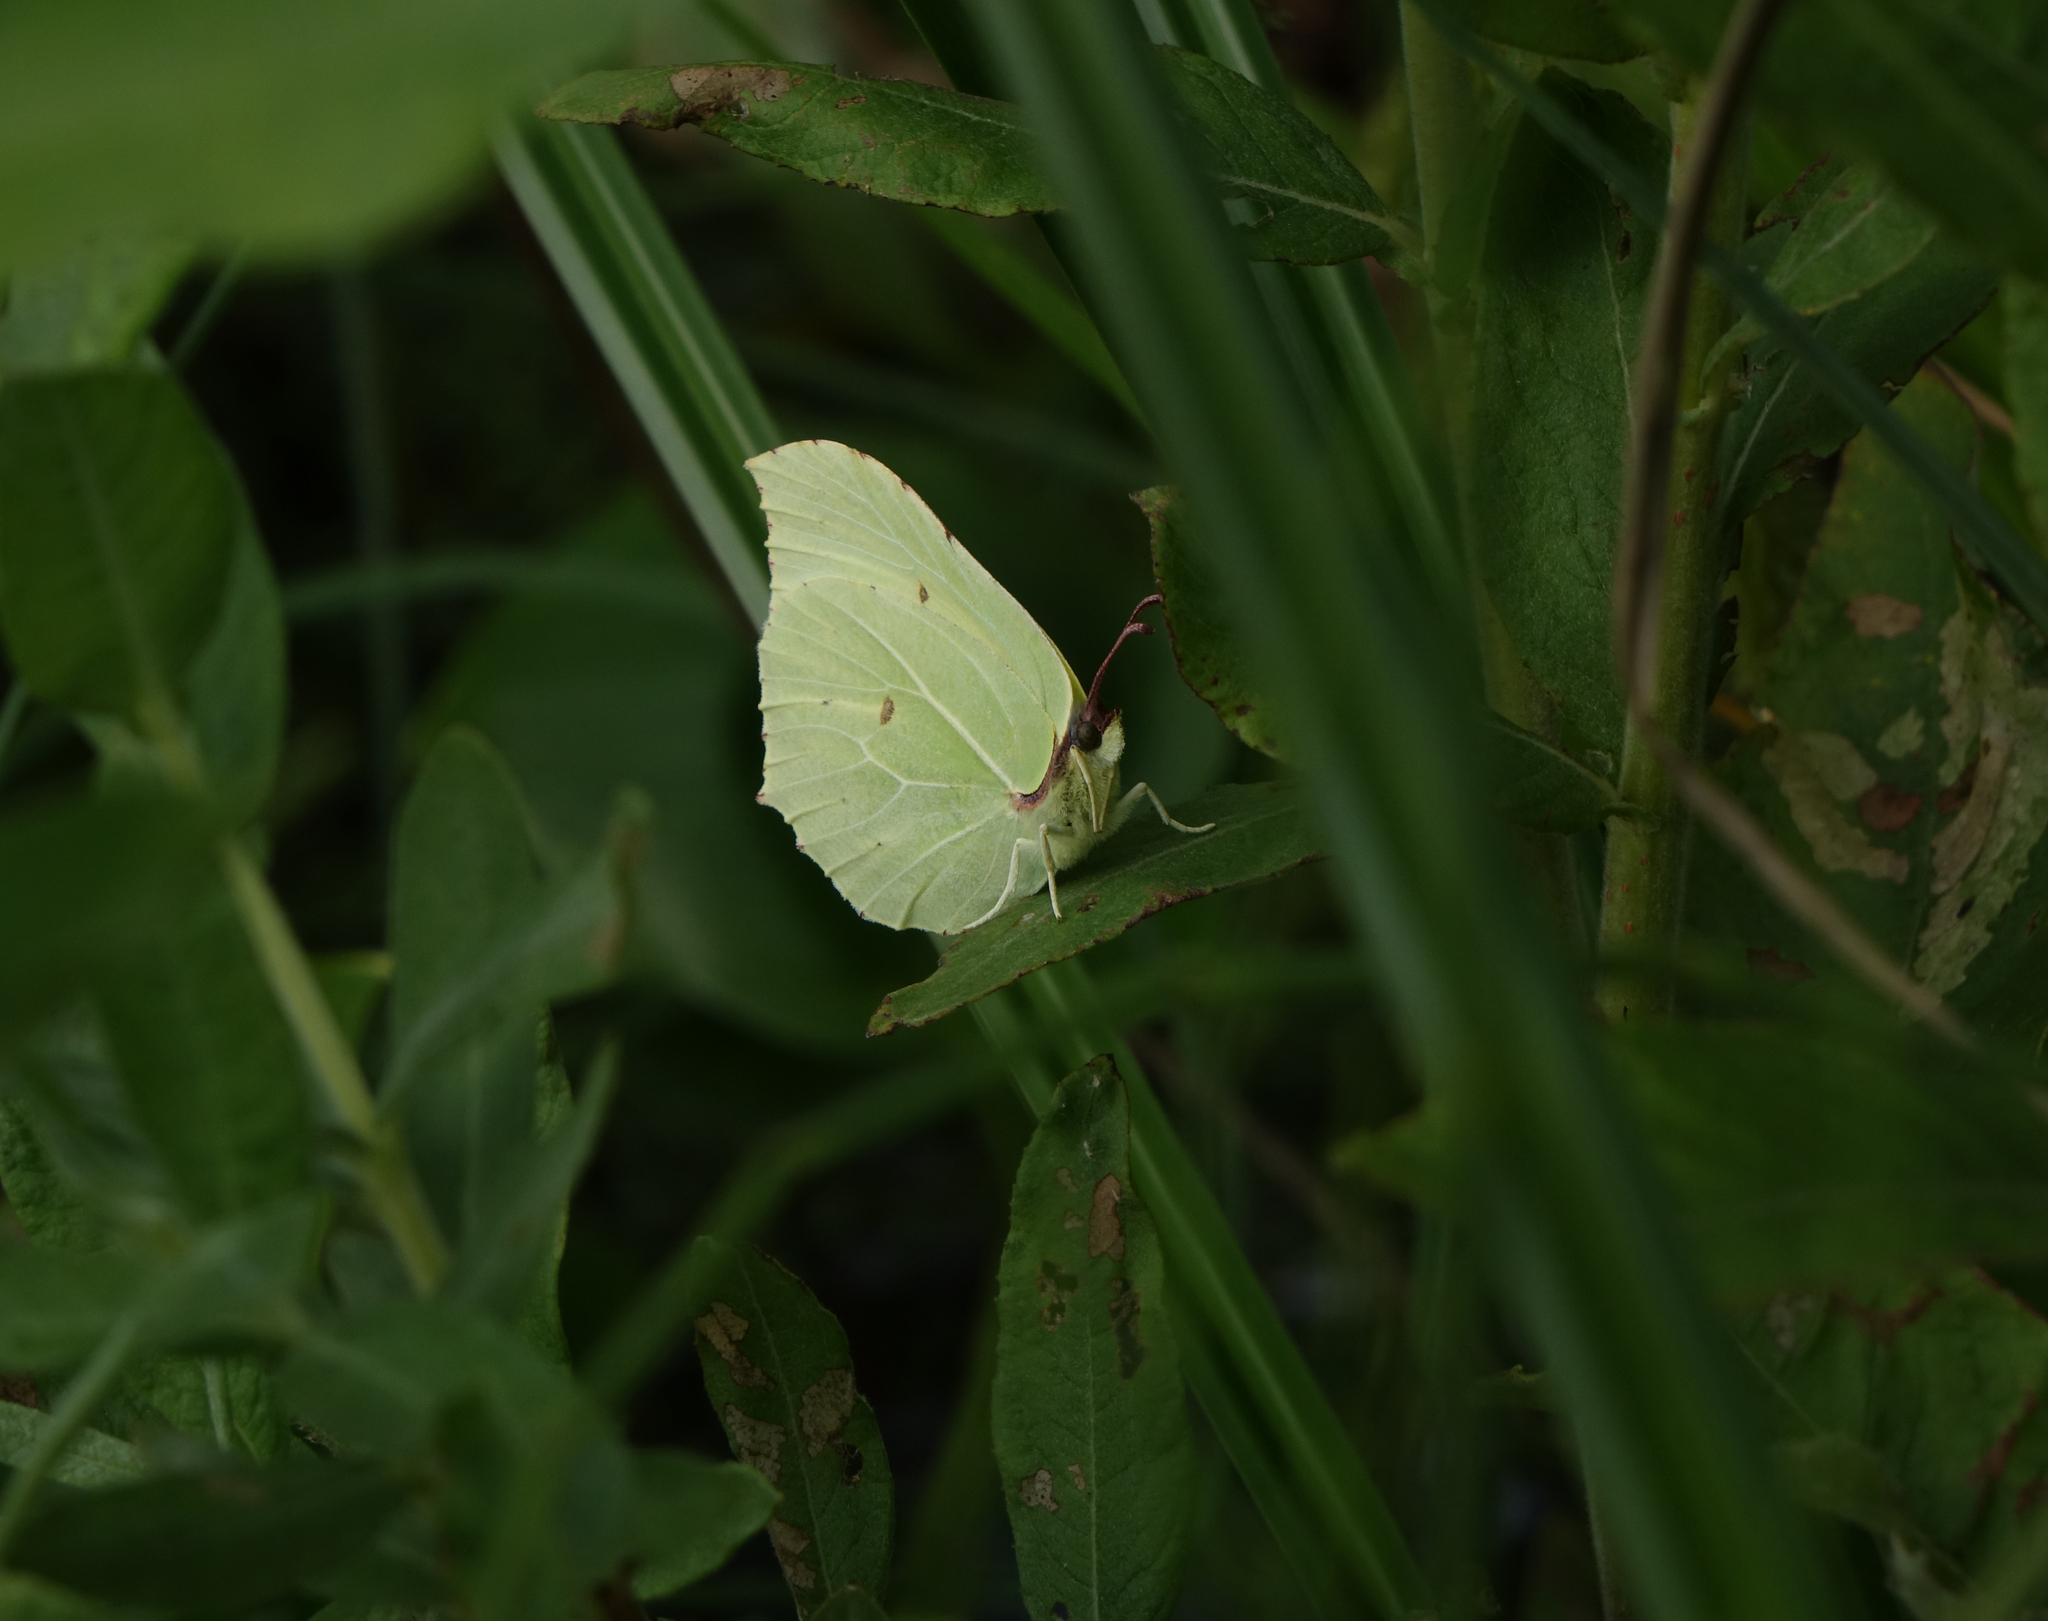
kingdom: Animalia
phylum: Arthropoda
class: Insecta
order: Lepidoptera
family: Pieridae
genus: Gonepteryx
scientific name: Gonepteryx rhamni
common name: Brimstone
